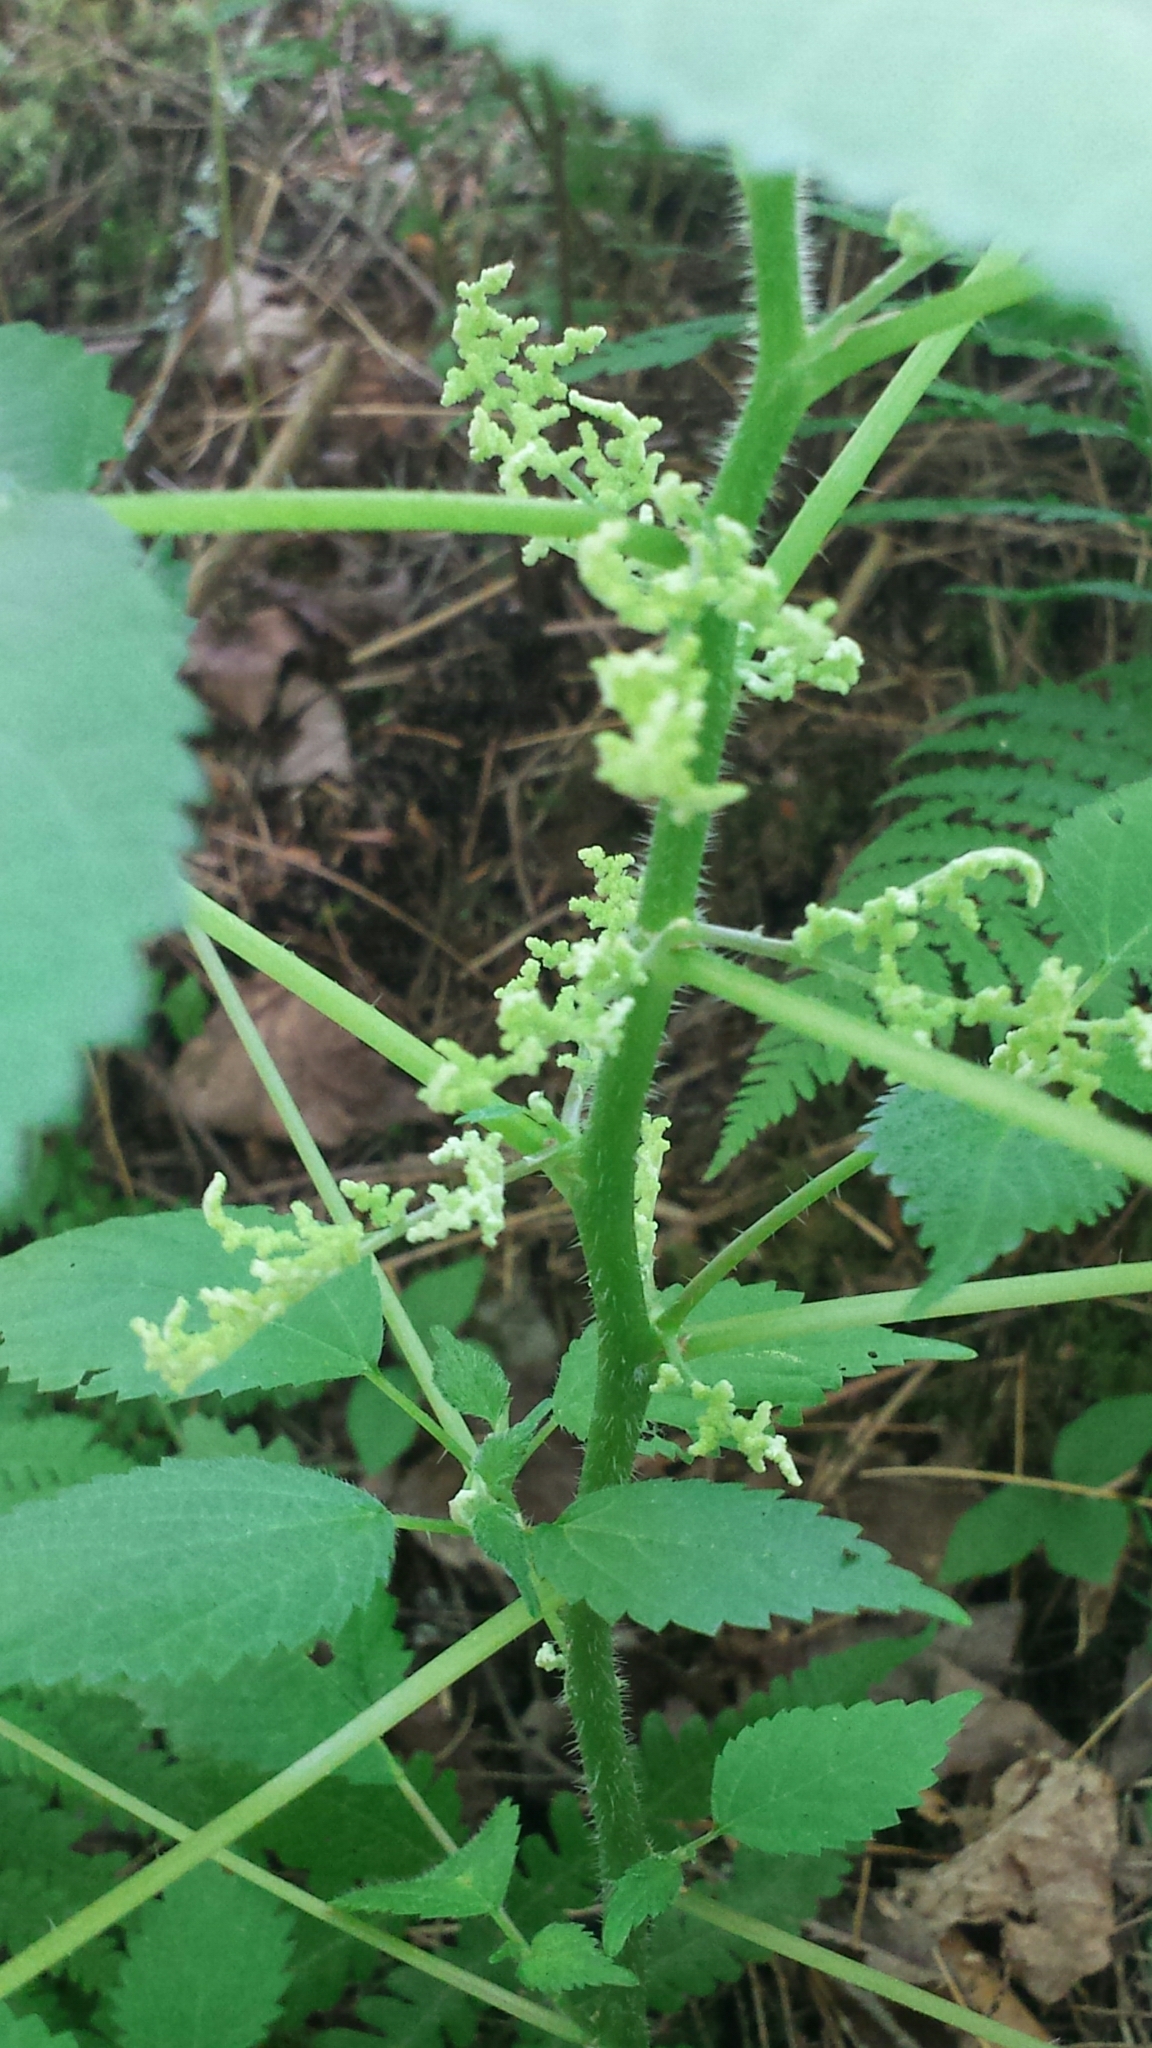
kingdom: Plantae
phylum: Tracheophyta
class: Magnoliopsida
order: Rosales
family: Urticaceae
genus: Laportea
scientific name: Laportea canadensis
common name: Canada nettle
